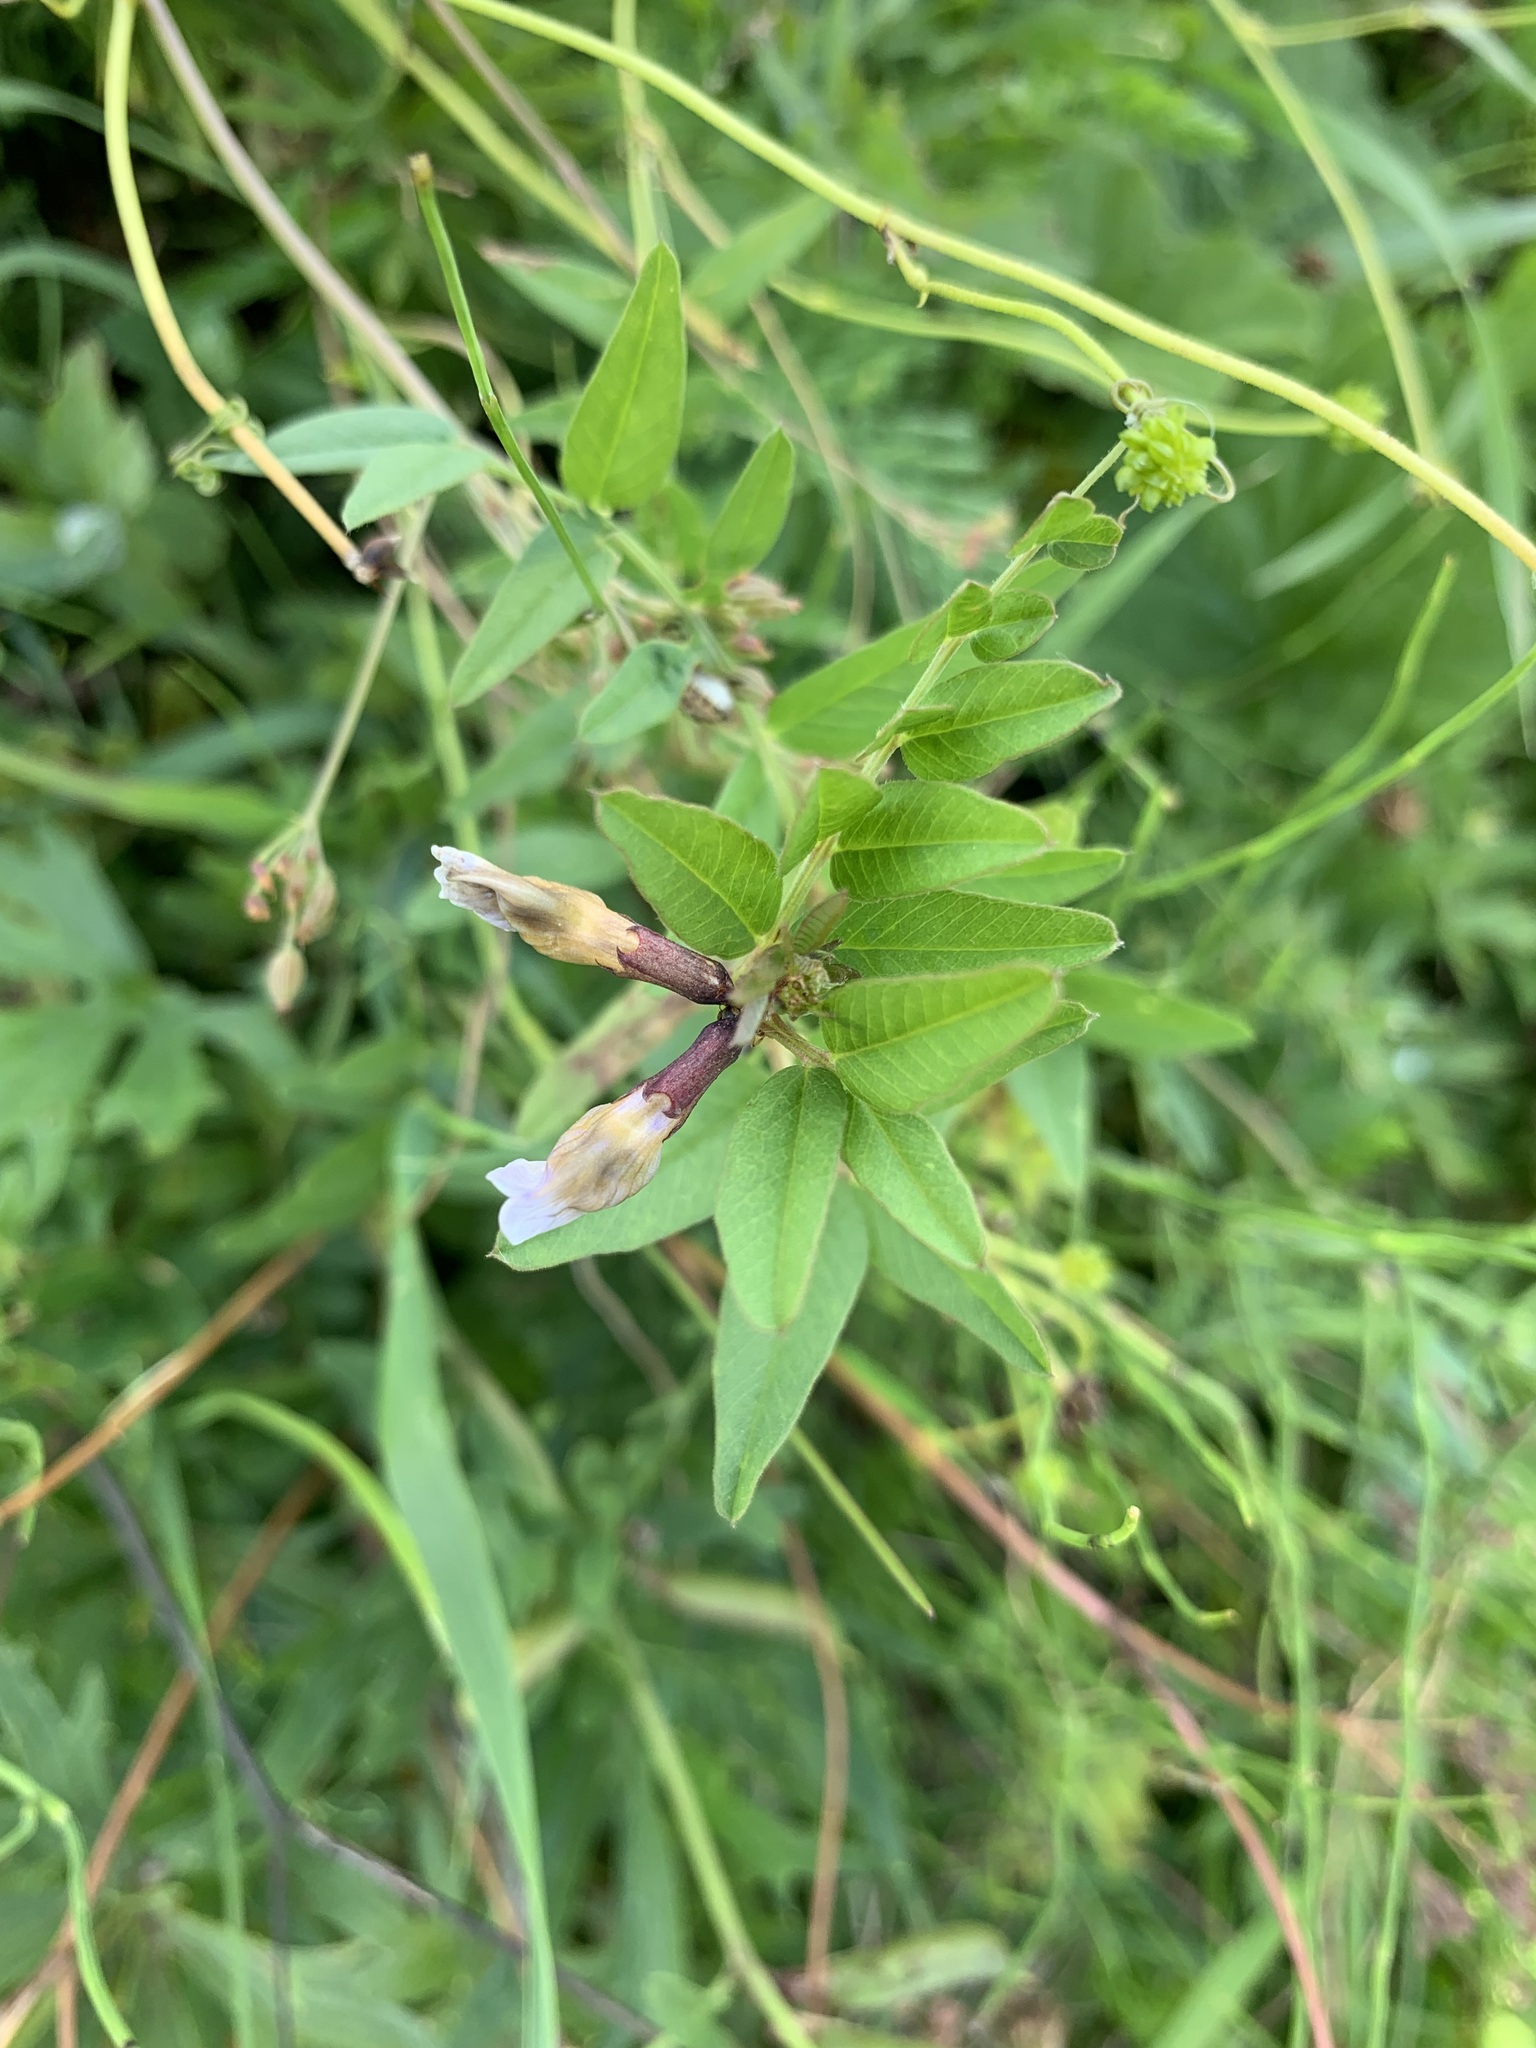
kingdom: Plantae
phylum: Tracheophyta
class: Magnoliopsida
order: Fabales
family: Fabaceae
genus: Vicia
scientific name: Vicia sepium
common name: Bush vetch
